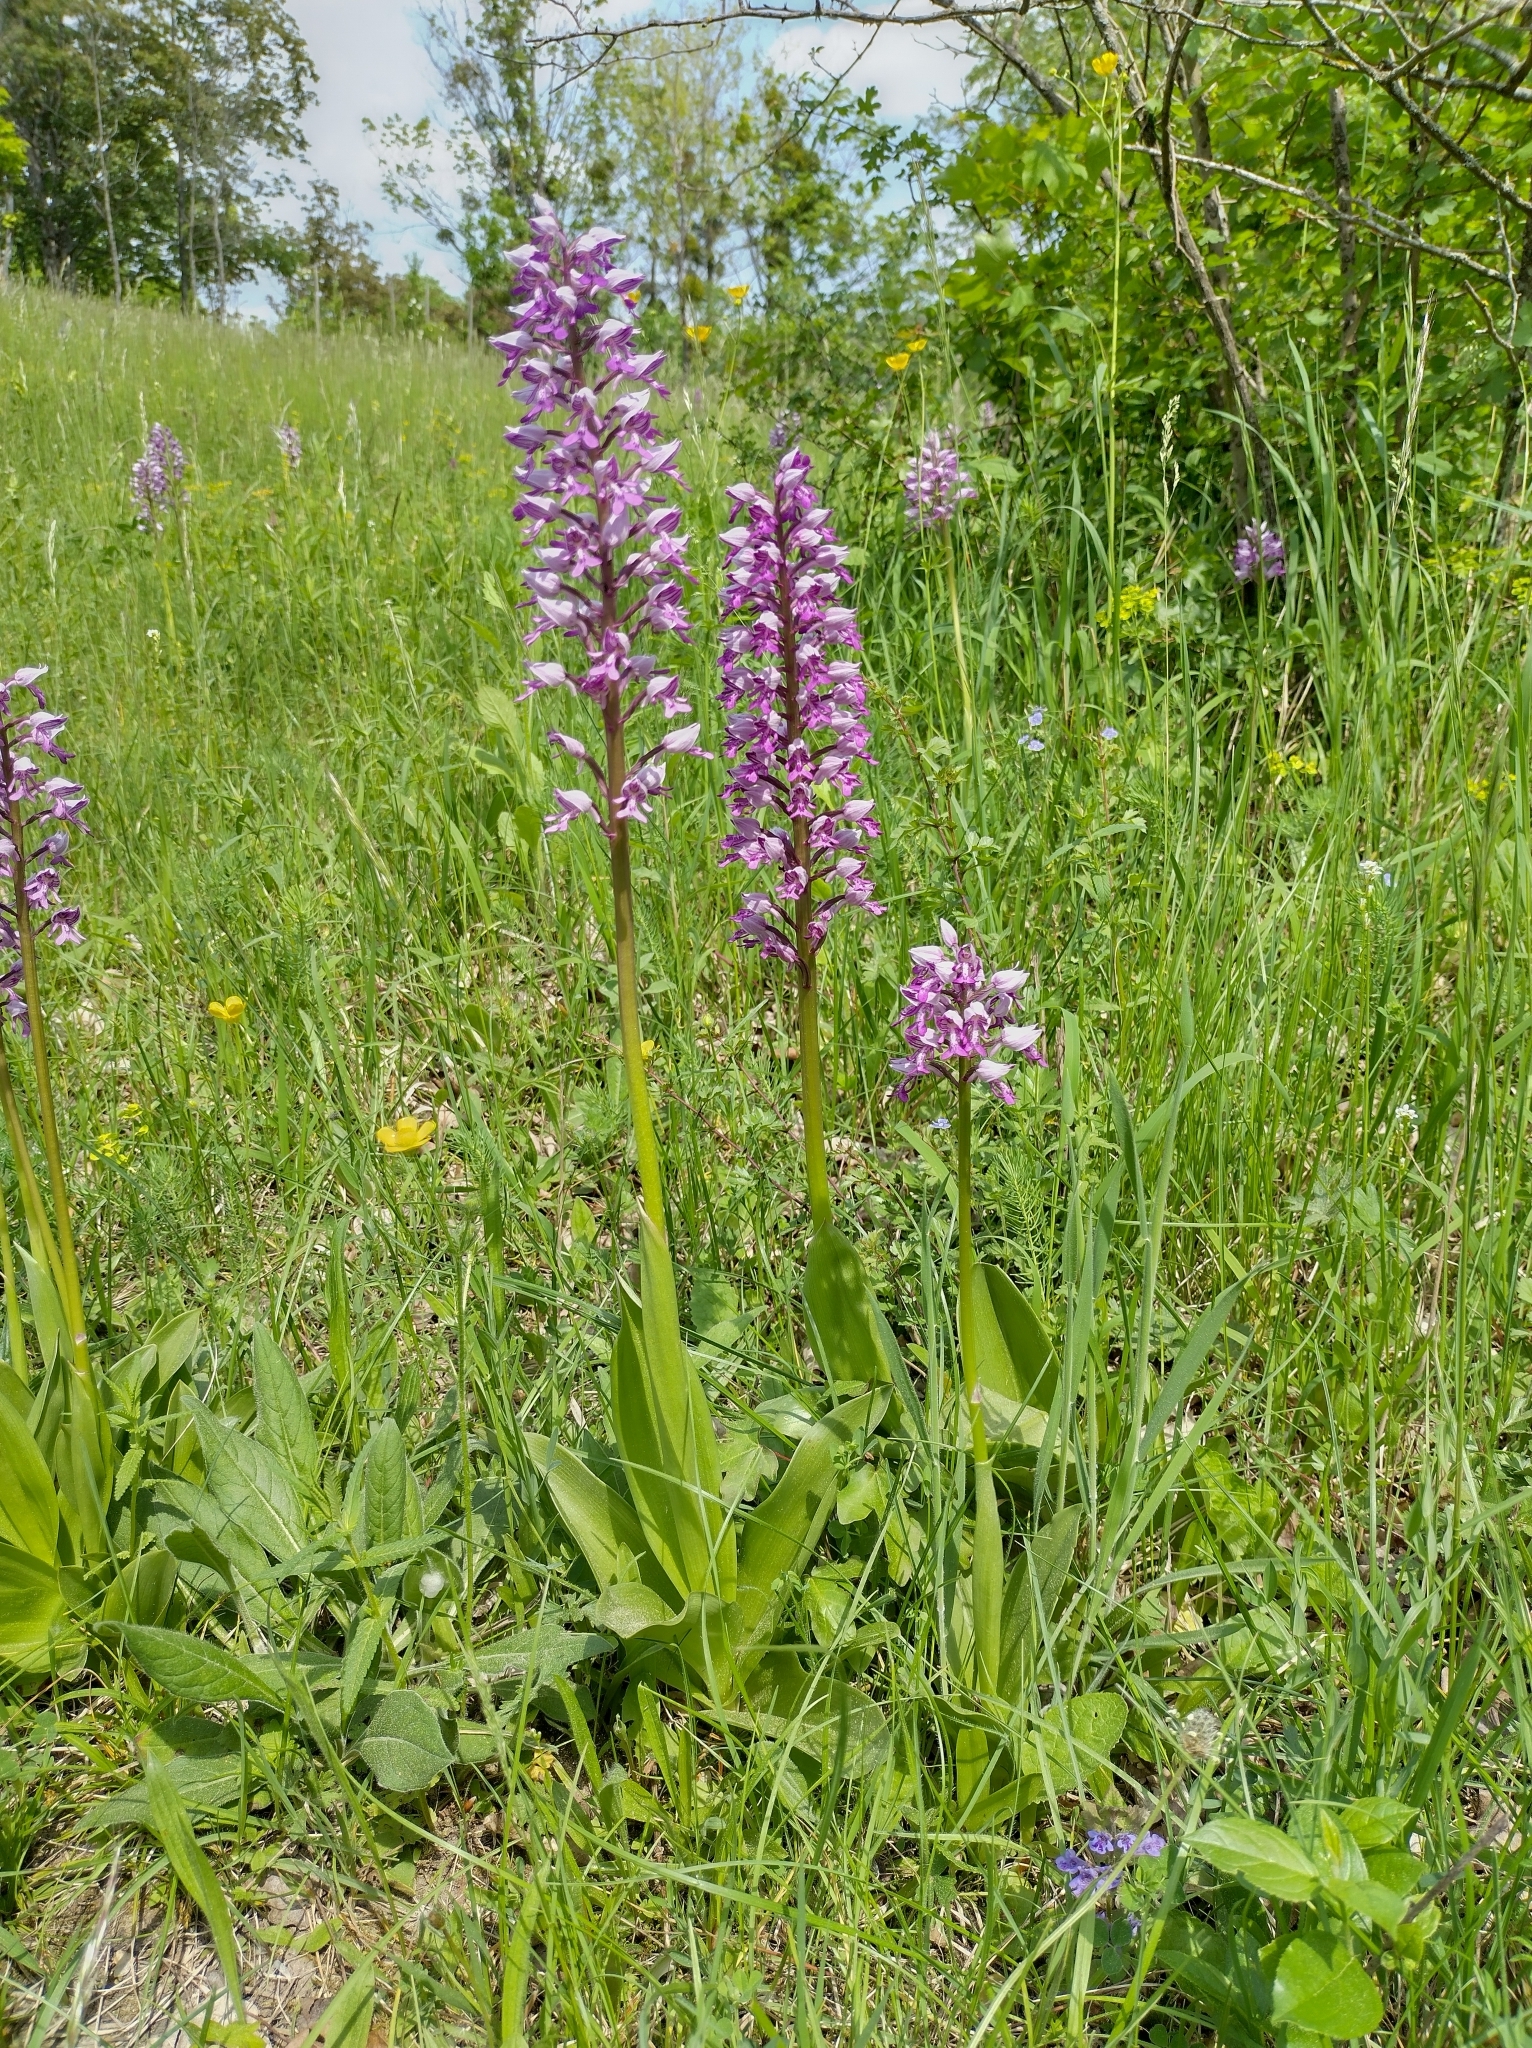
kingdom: Plantae
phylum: Tracheophyta
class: Liliopsida
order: Asparagales
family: Orchidaceae
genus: Orchis
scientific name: Orchis militaris
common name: Military orchid
